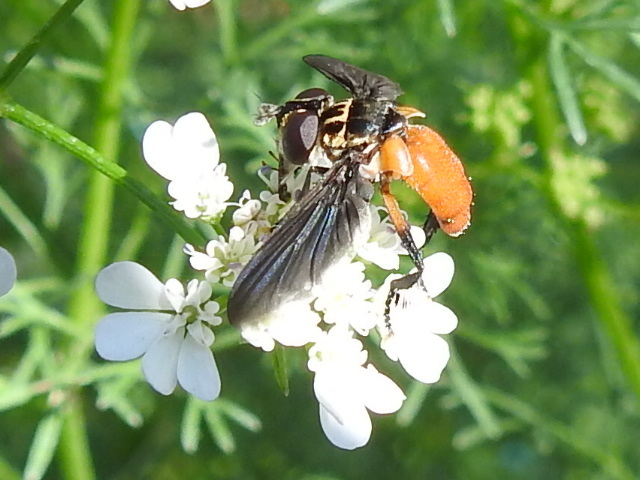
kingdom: Animalia
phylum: Arthropoda
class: Insecta
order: Diptera
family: Tachinidae
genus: Trichopoda
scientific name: Trichopoda pennipes
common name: Tachinid fly
